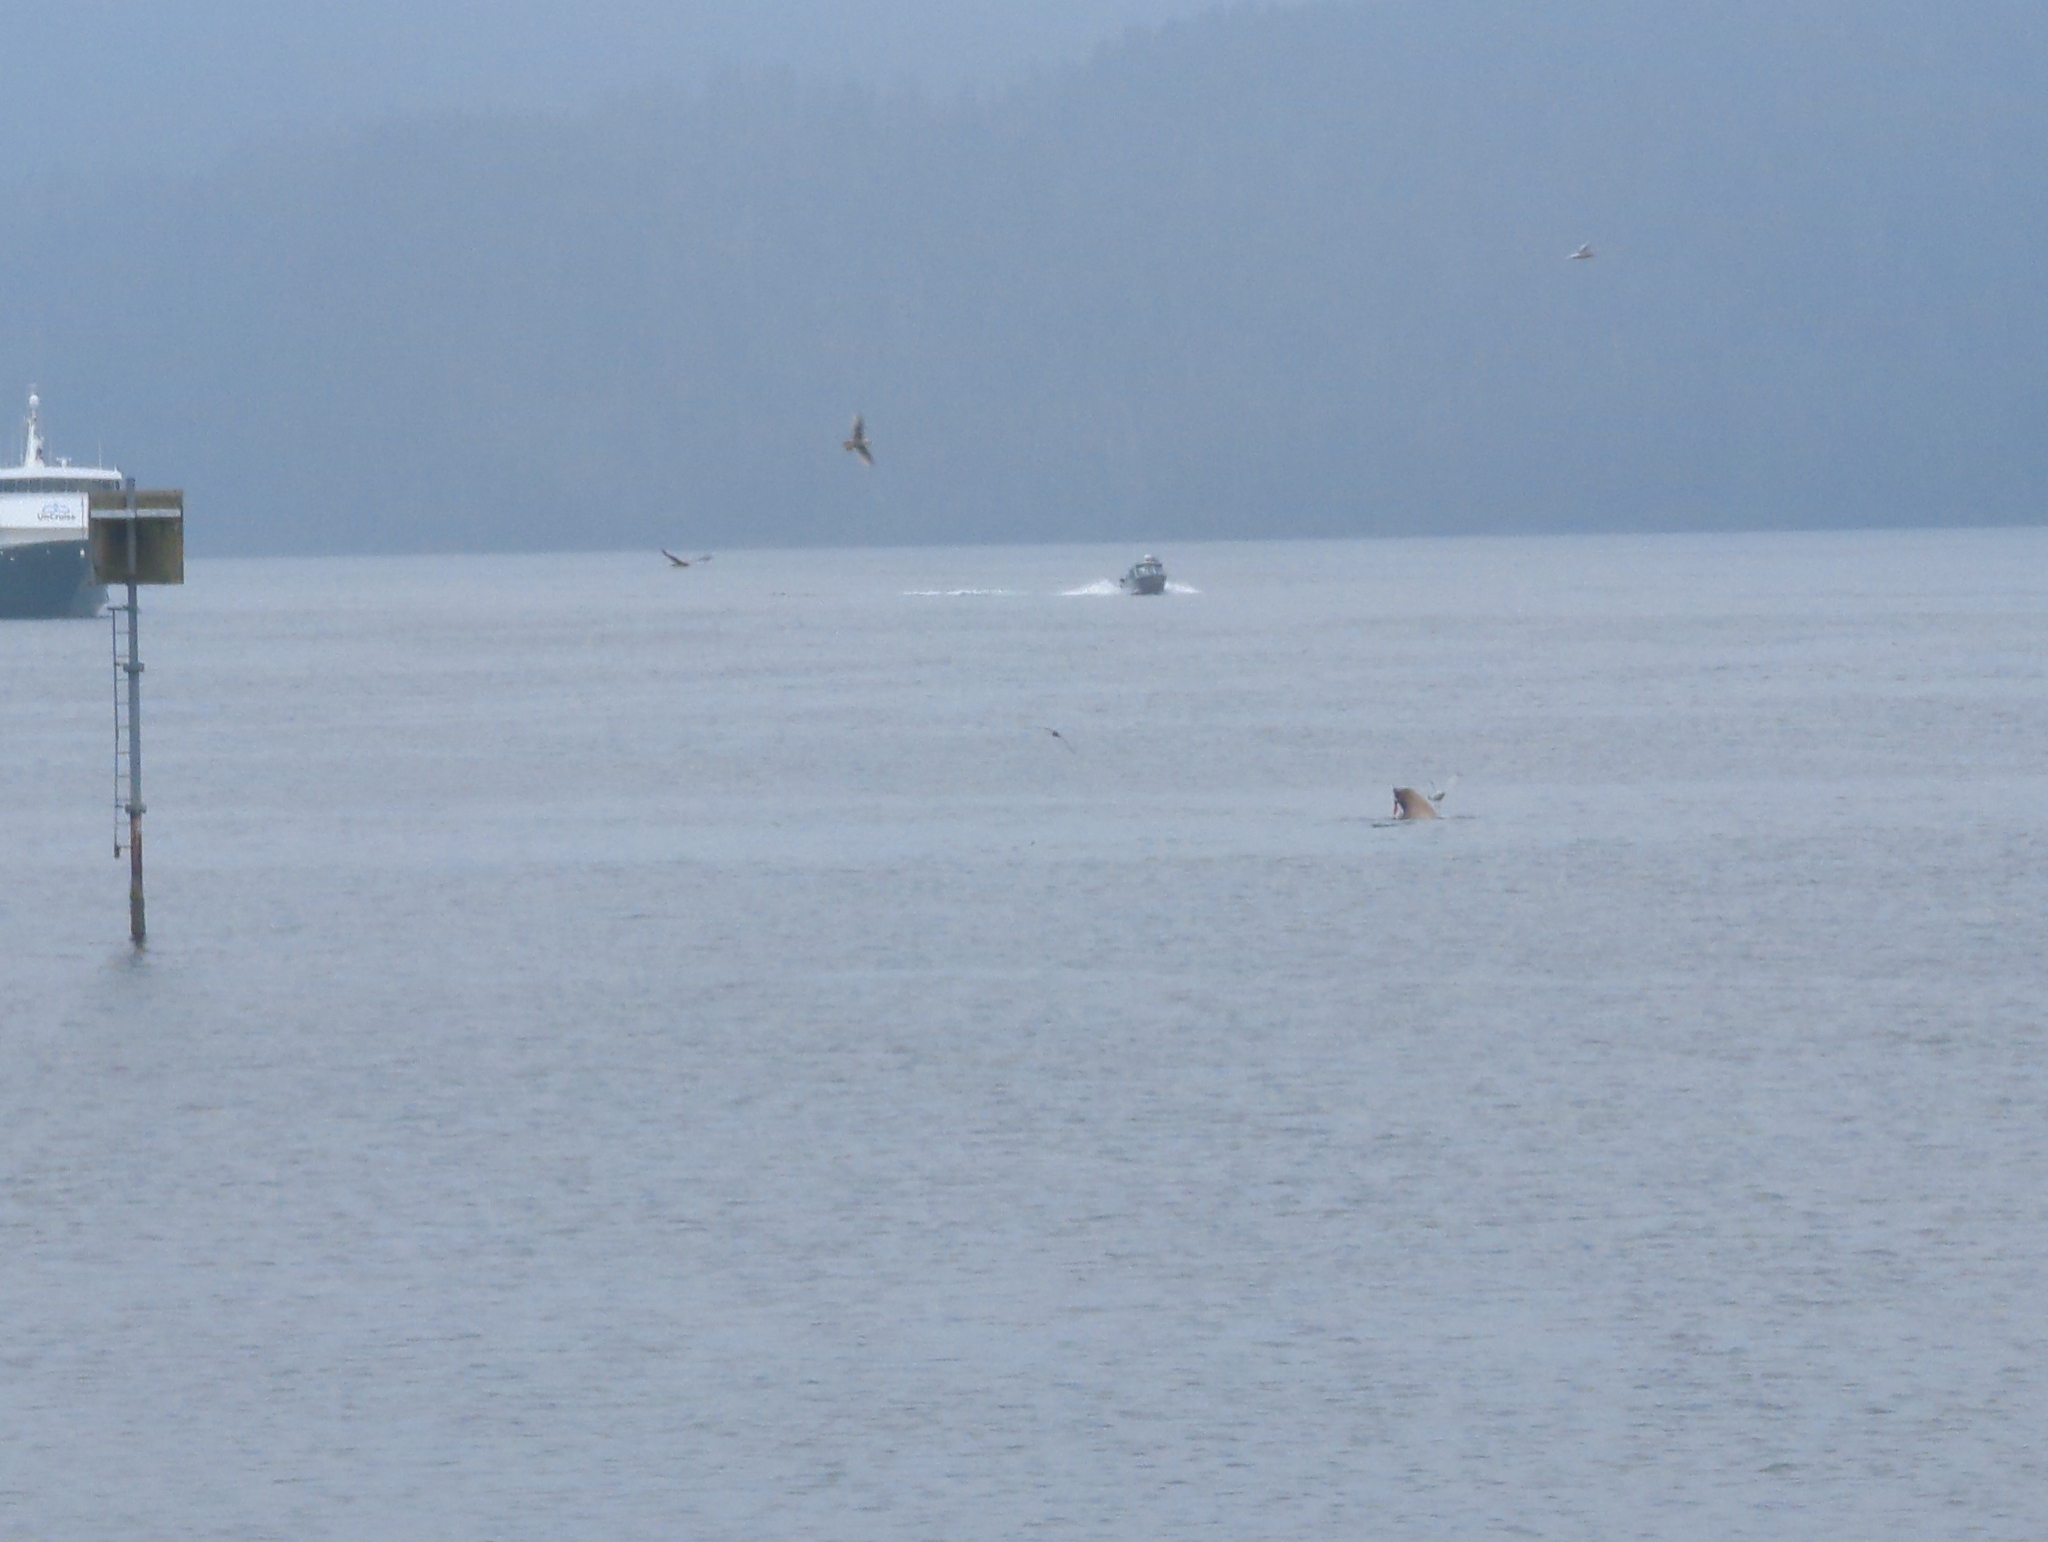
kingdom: Animalia
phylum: Chordata
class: Mammalia
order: Carnivora
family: Otariidae
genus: Eumetopias
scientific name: Eumetopias jubatus
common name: Steller sea lion
